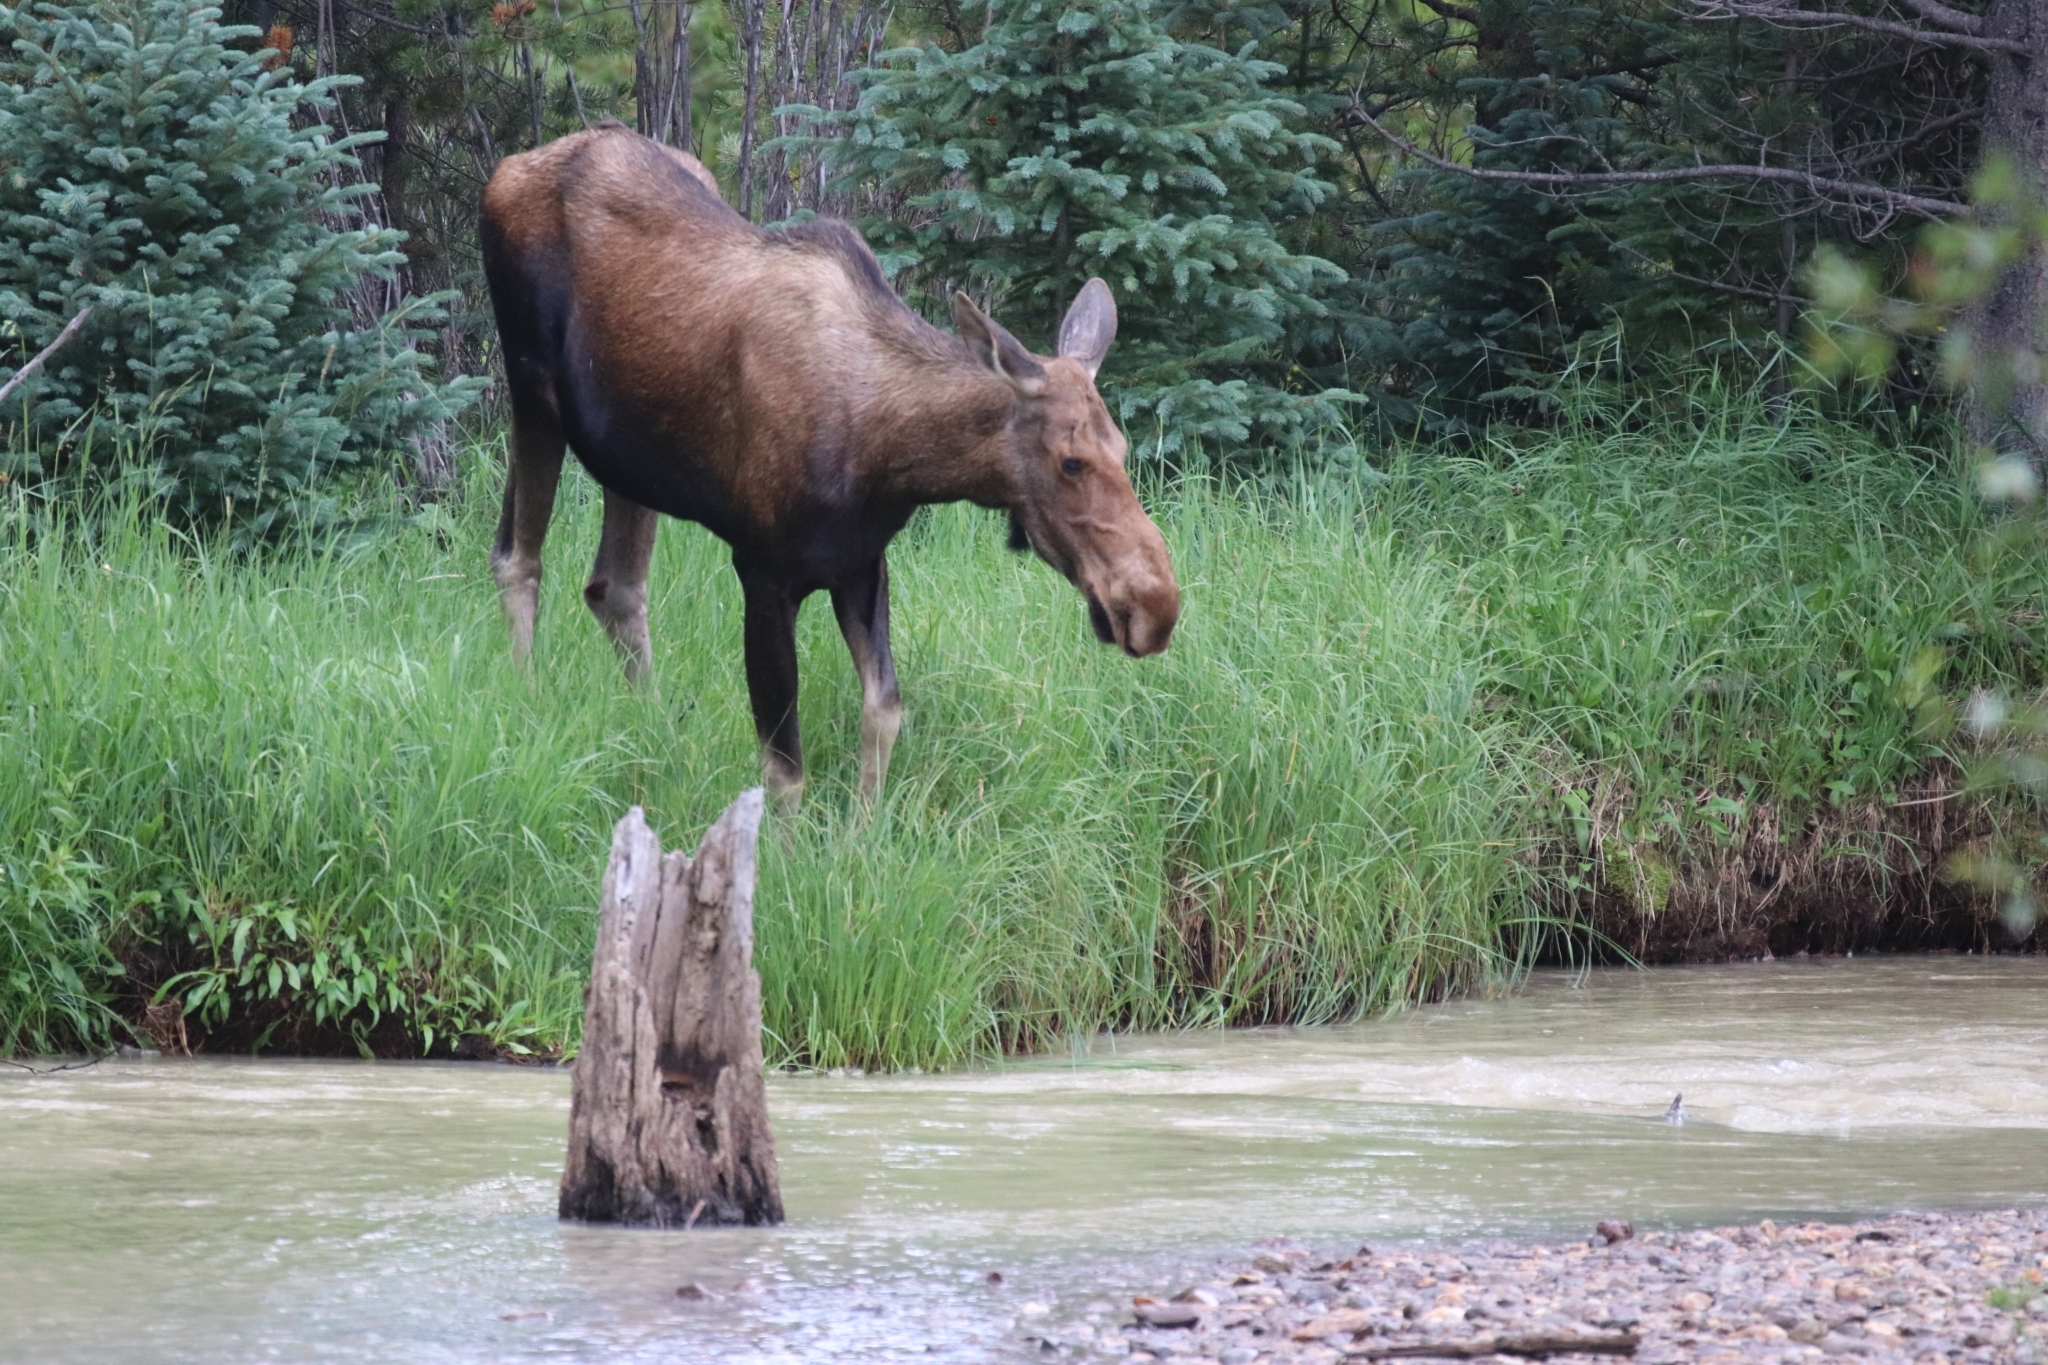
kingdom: Animalia
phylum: Chordata
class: Mammalia
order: Artiodactyla
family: Cervidae
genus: Alces
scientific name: Alces alces
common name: Moose
